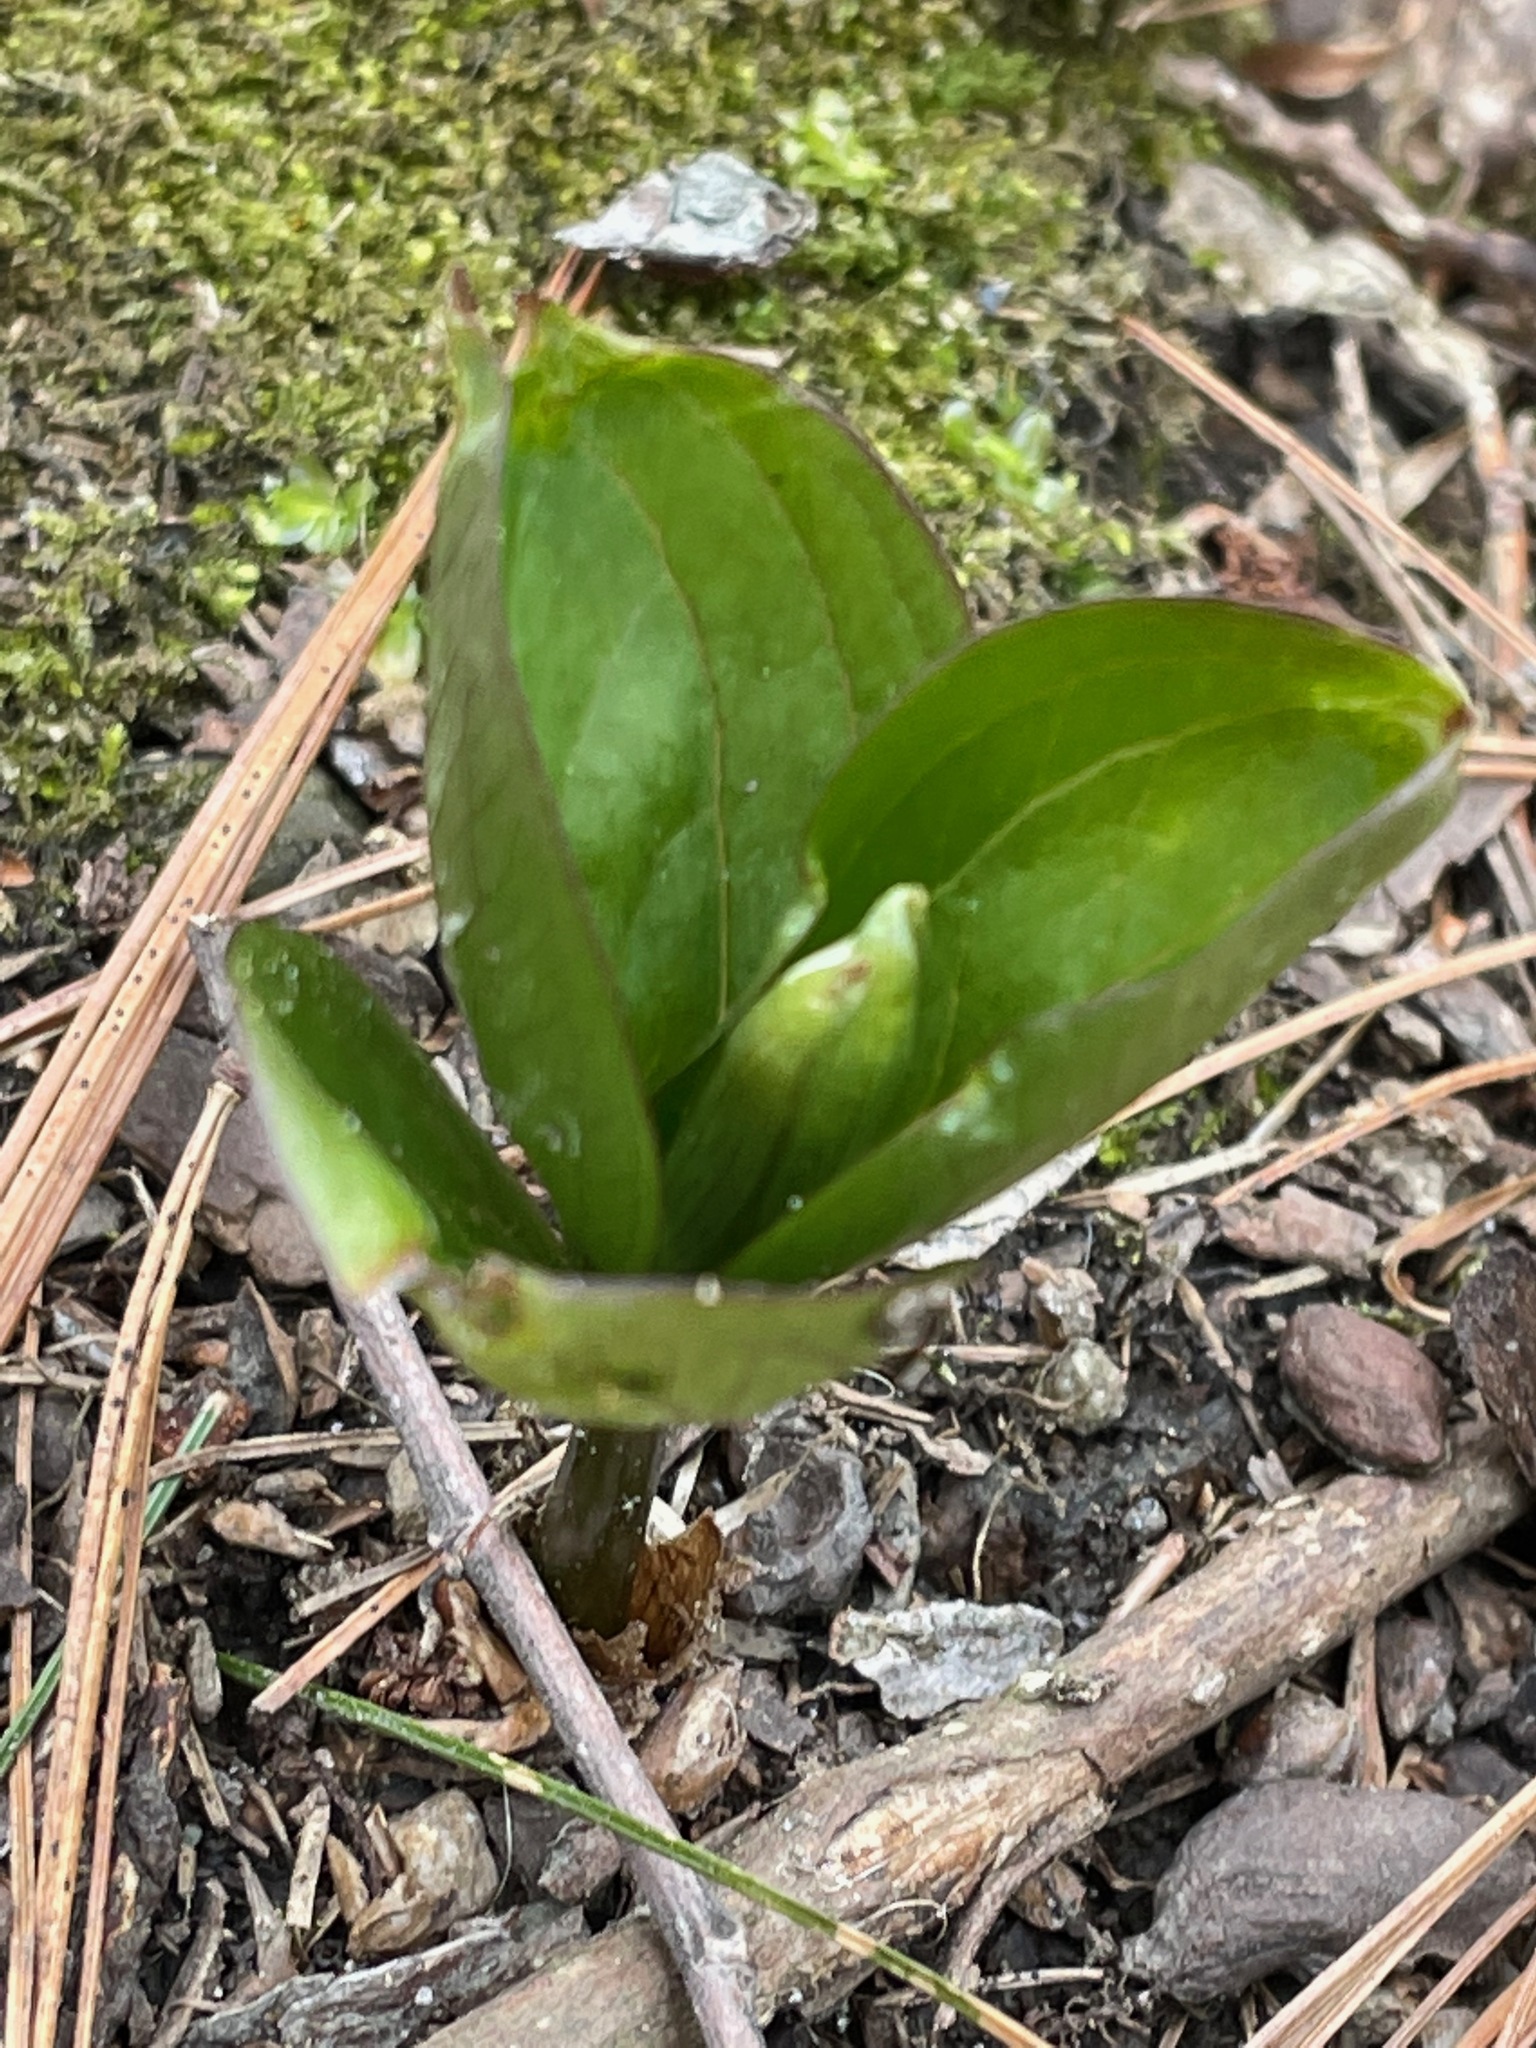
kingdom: Plantae
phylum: Tracheophyta
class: Liliopsida
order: Liliales
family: Melanthiaceae
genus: Trillium
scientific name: Trillium grandiflorum
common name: Great white trillium
